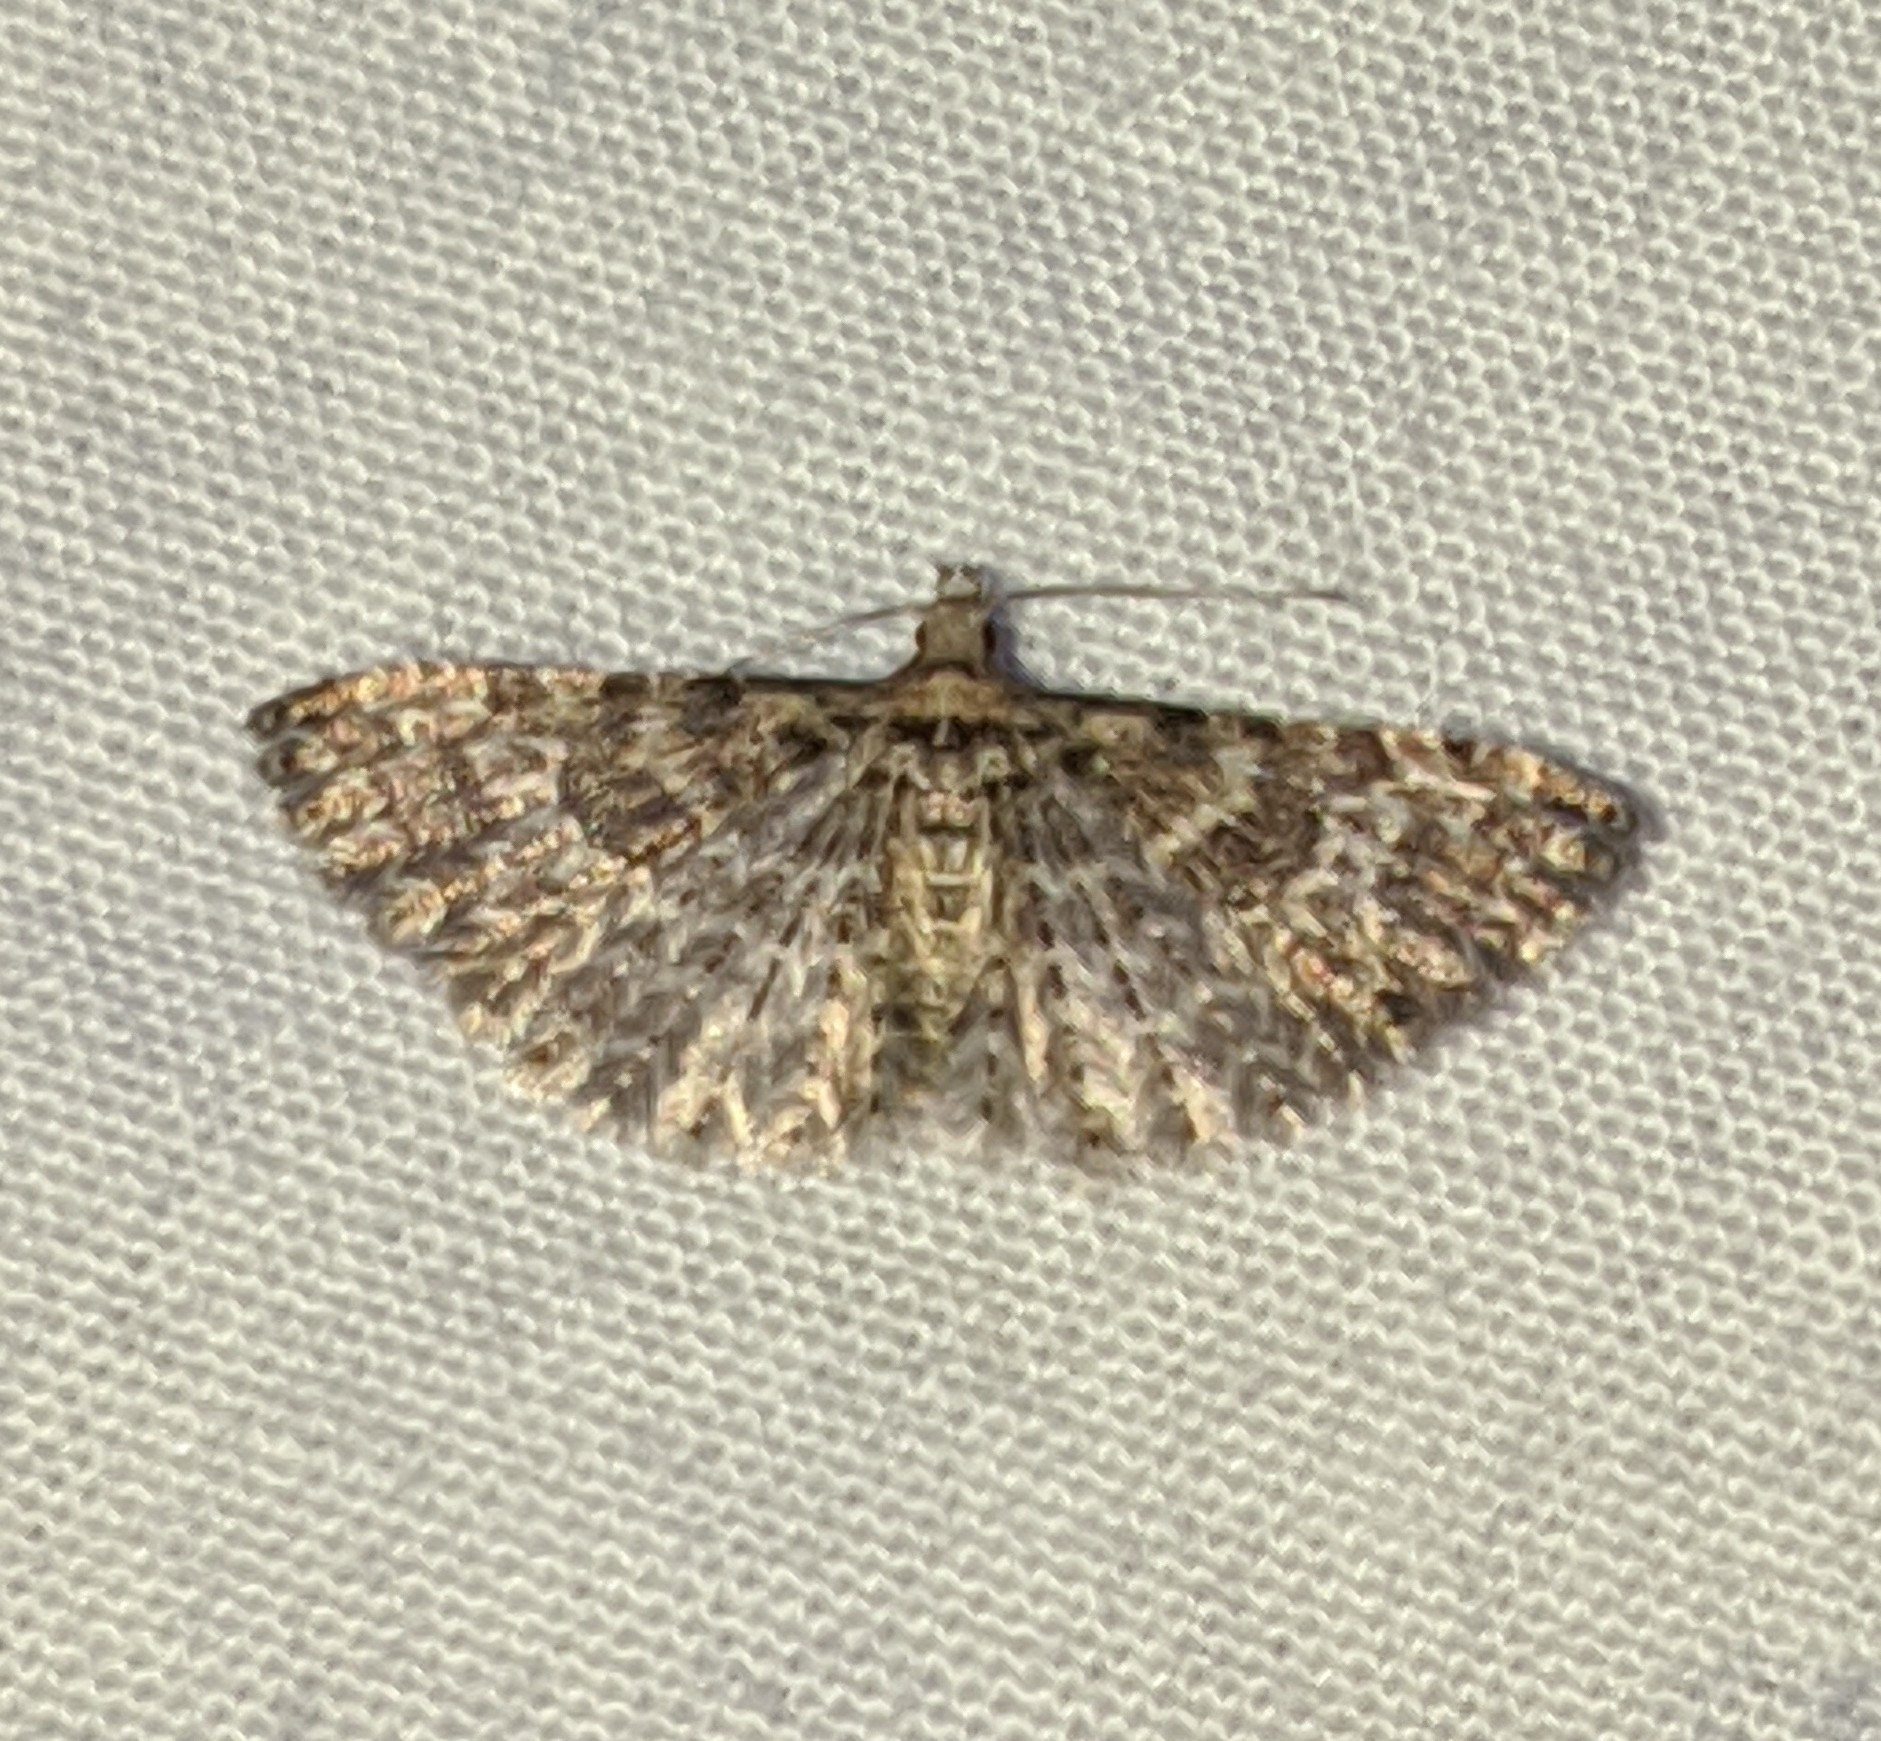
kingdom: Animalia
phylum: Arthropoda
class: Insecta
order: Lepidoptera
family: Alucitidae
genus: Alucita
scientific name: Alucita montana
